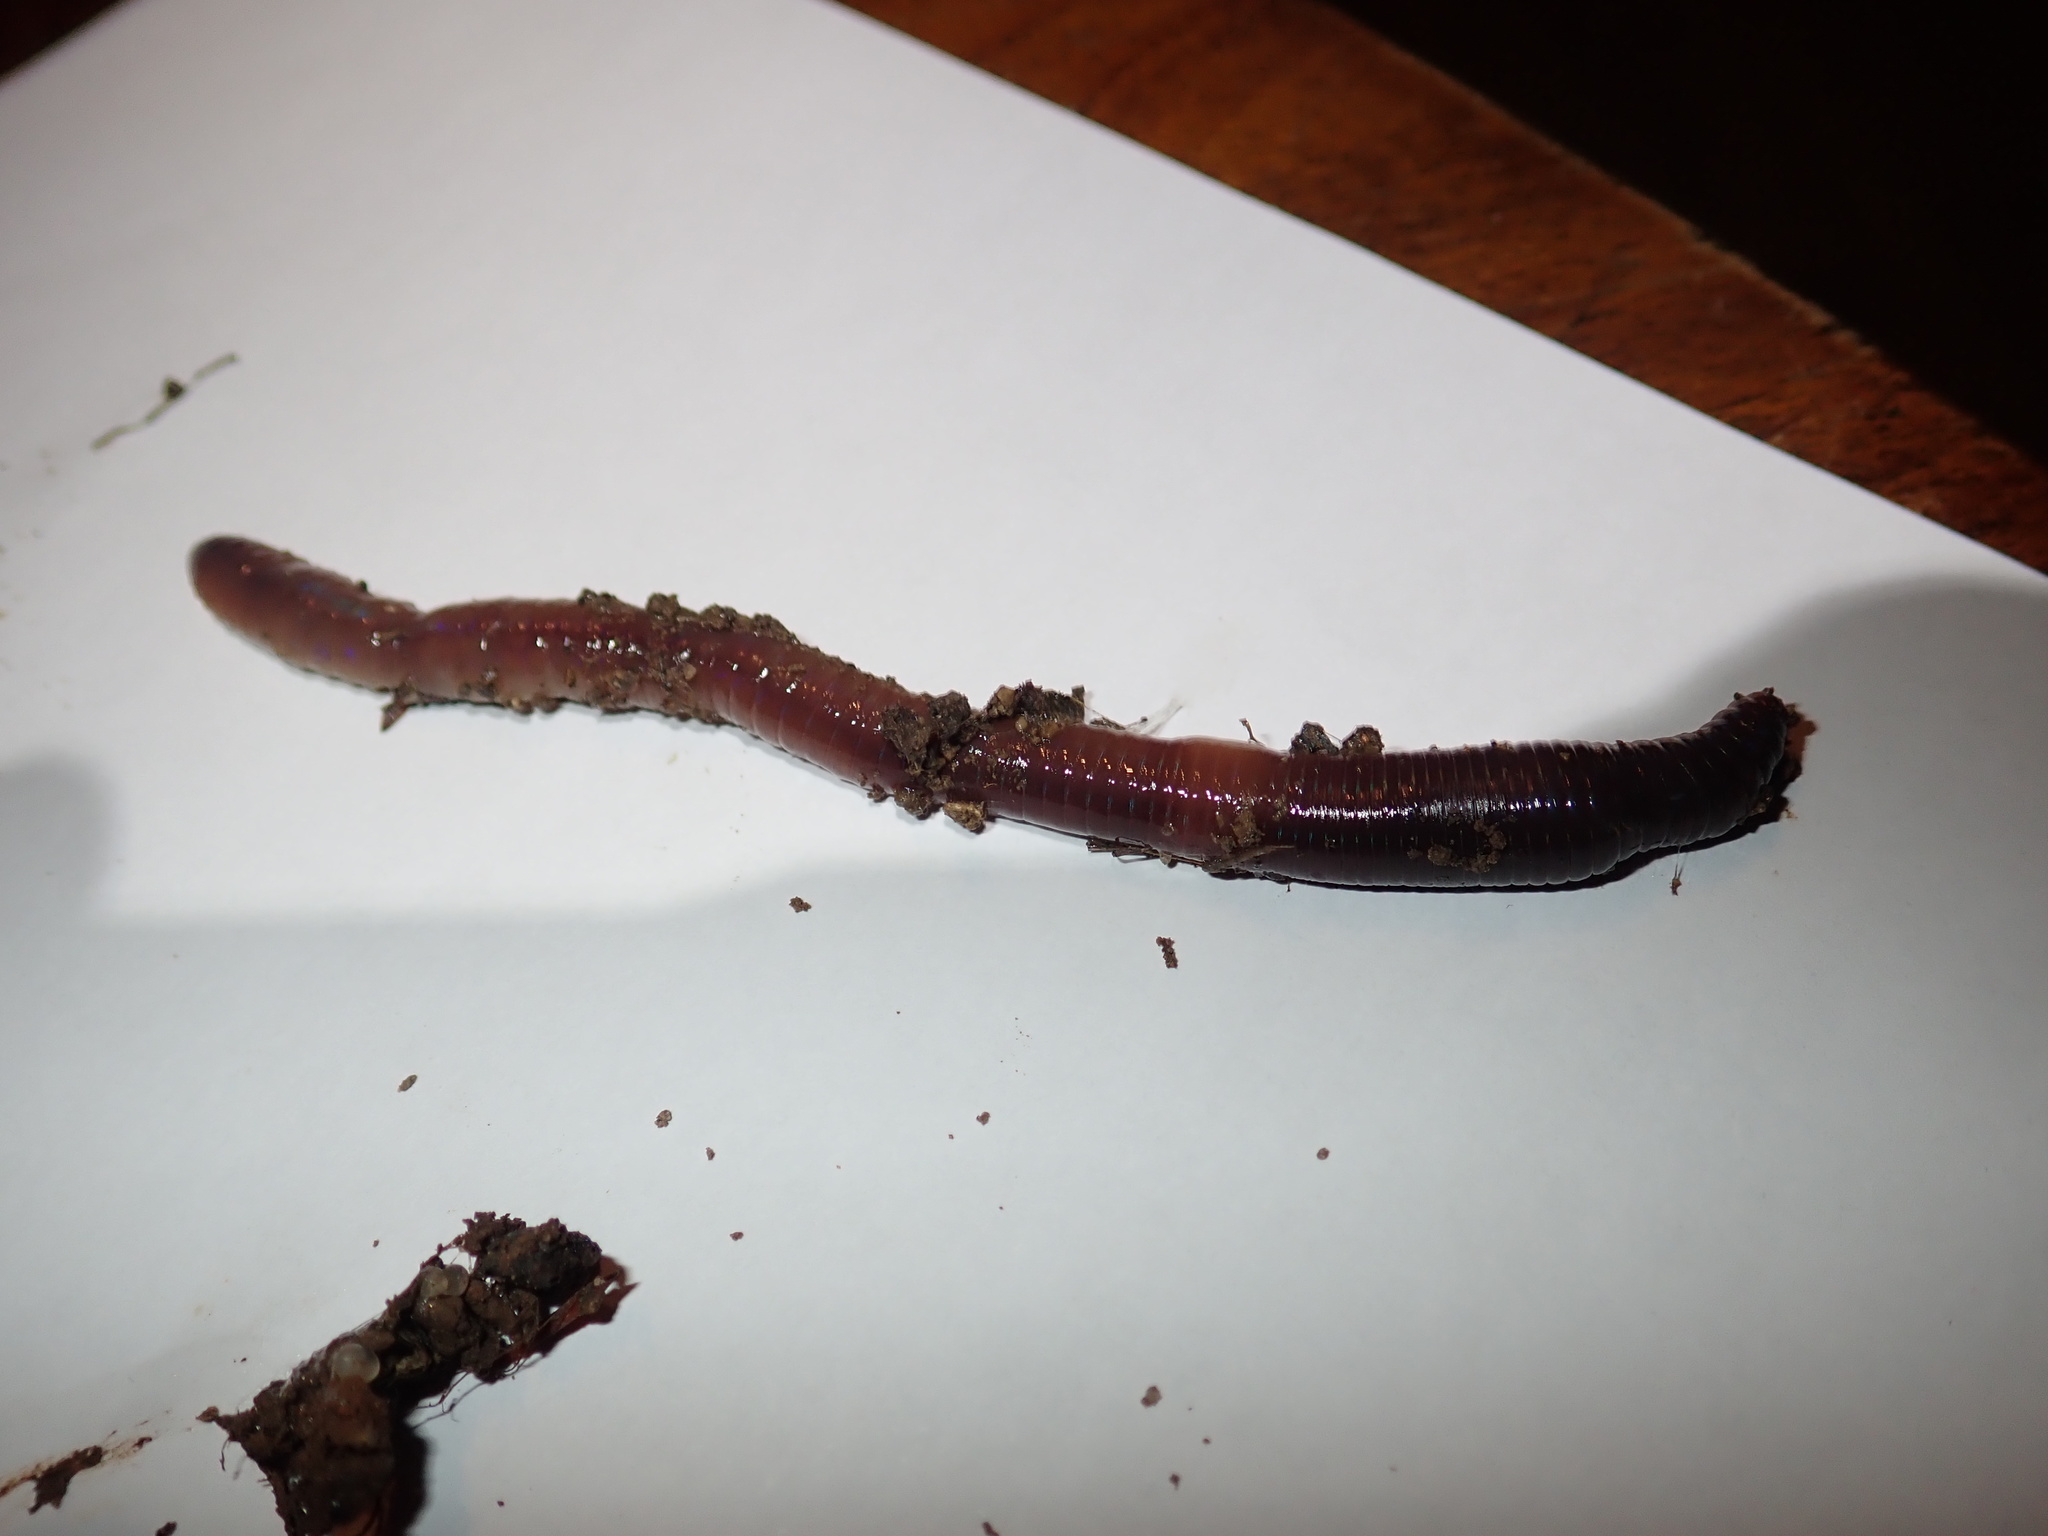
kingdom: Animalia
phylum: Annelida
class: Clitellata
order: Crassiclitellata
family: Lumbricidae
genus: Lumbricus
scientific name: Lumbricus terrestris
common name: Common earthworm
